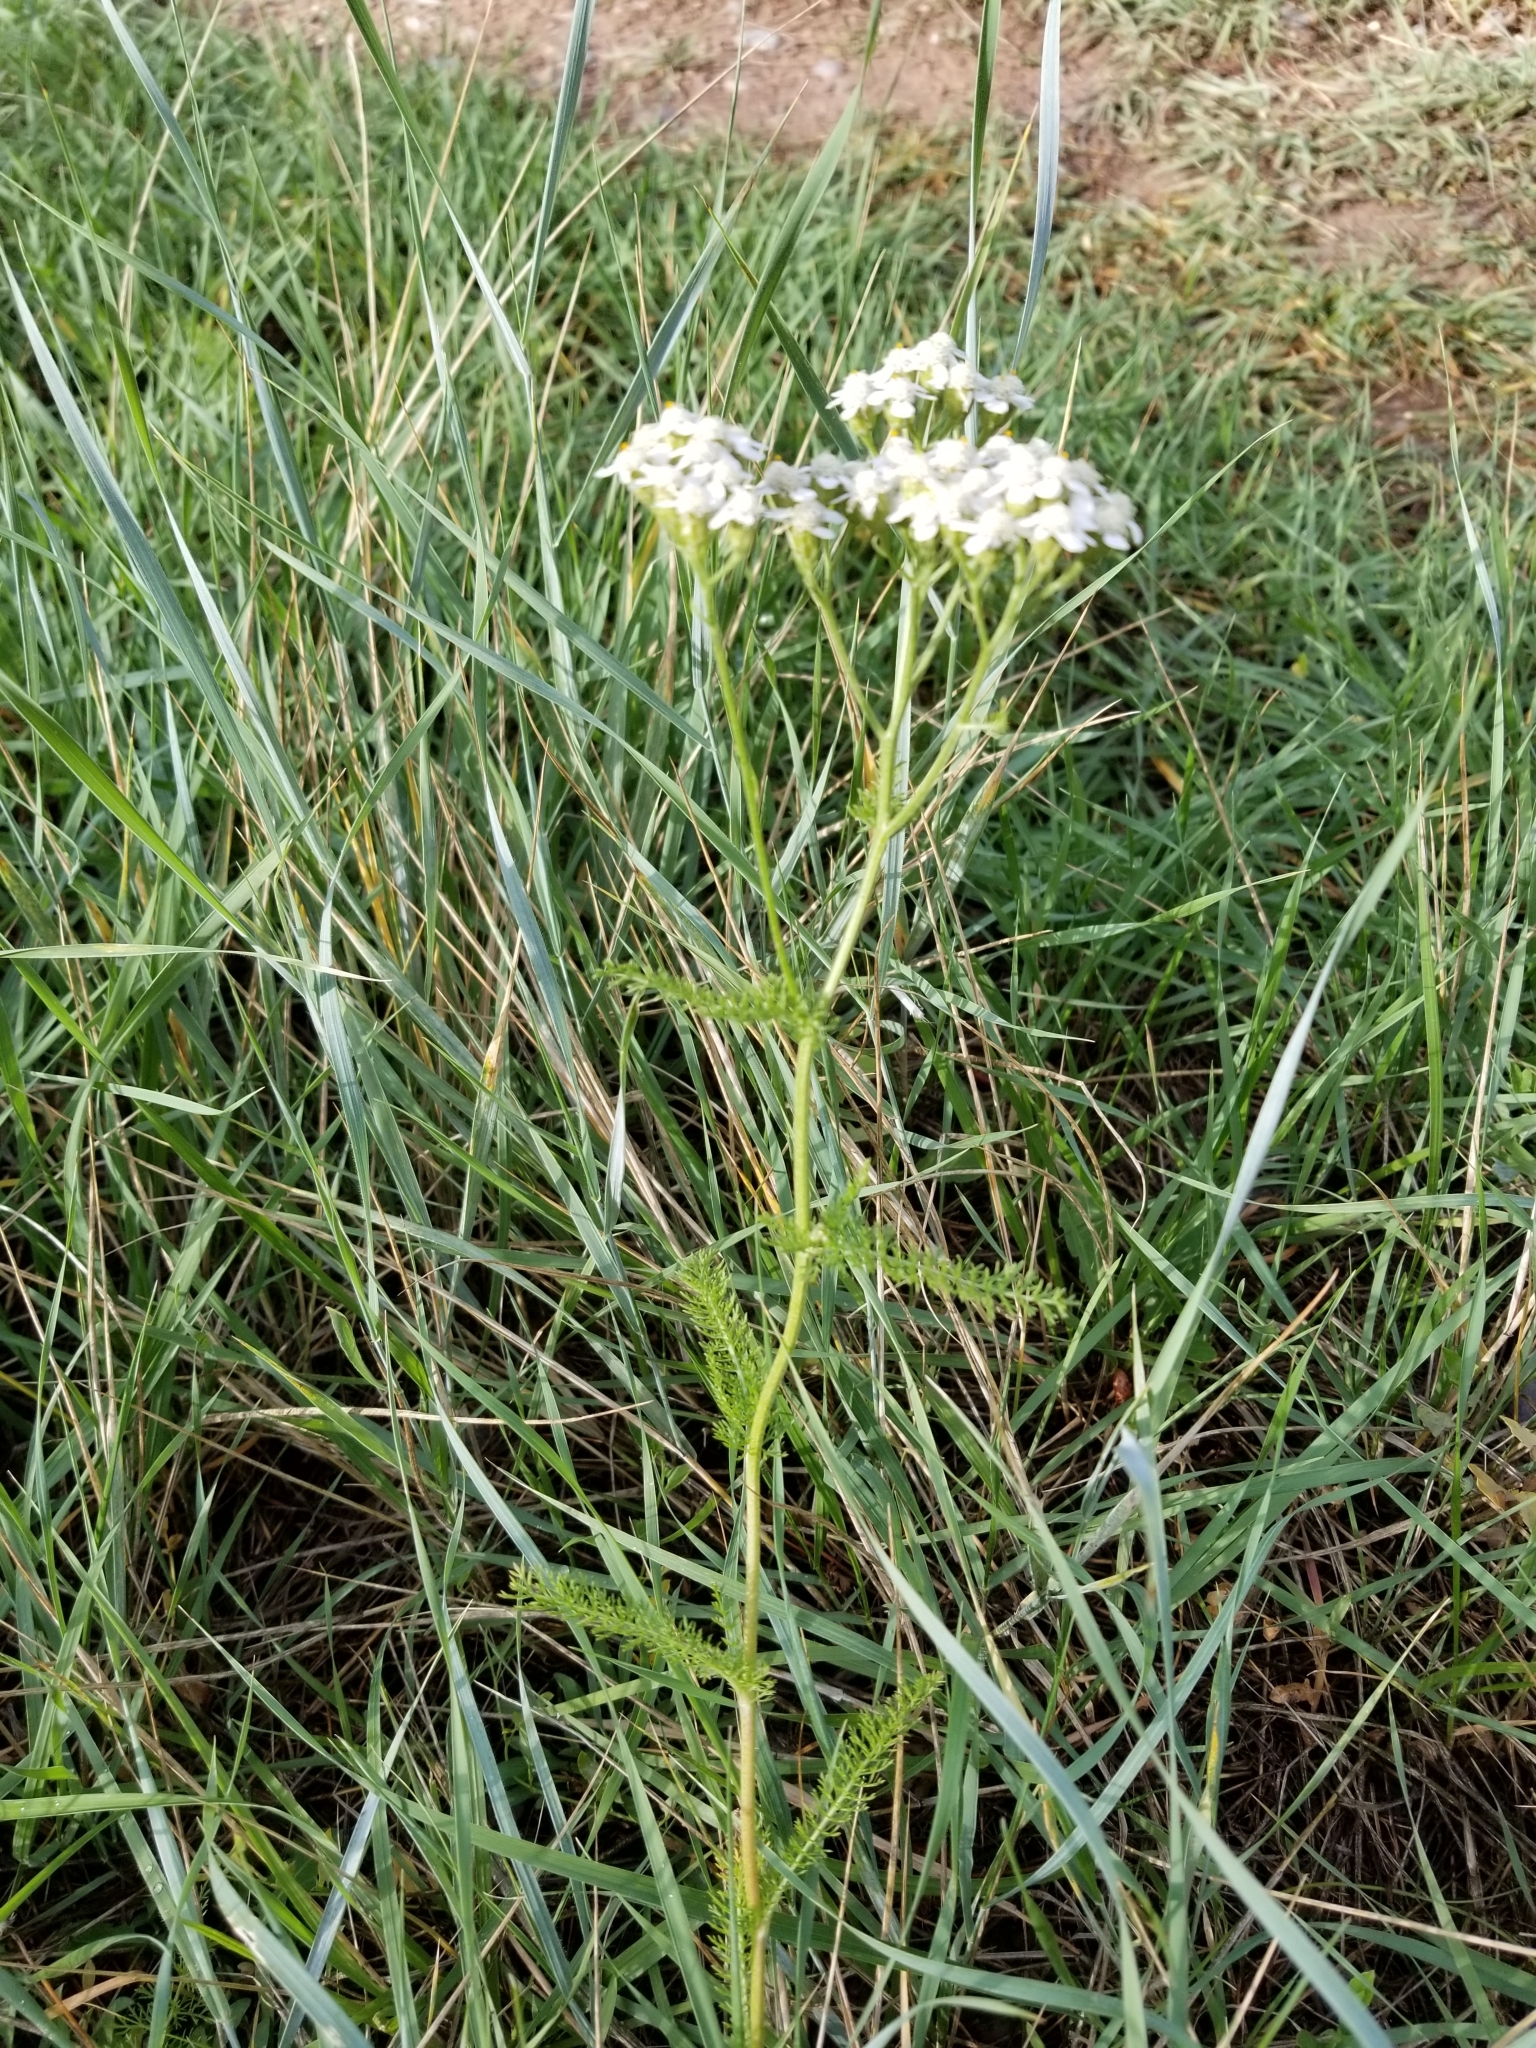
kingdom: Plantae
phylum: Tracheophyta
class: Magnoliopsida
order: Asterales
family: Asteraceae
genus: Achillea
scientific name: Achillea millefolium
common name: Yarrow
